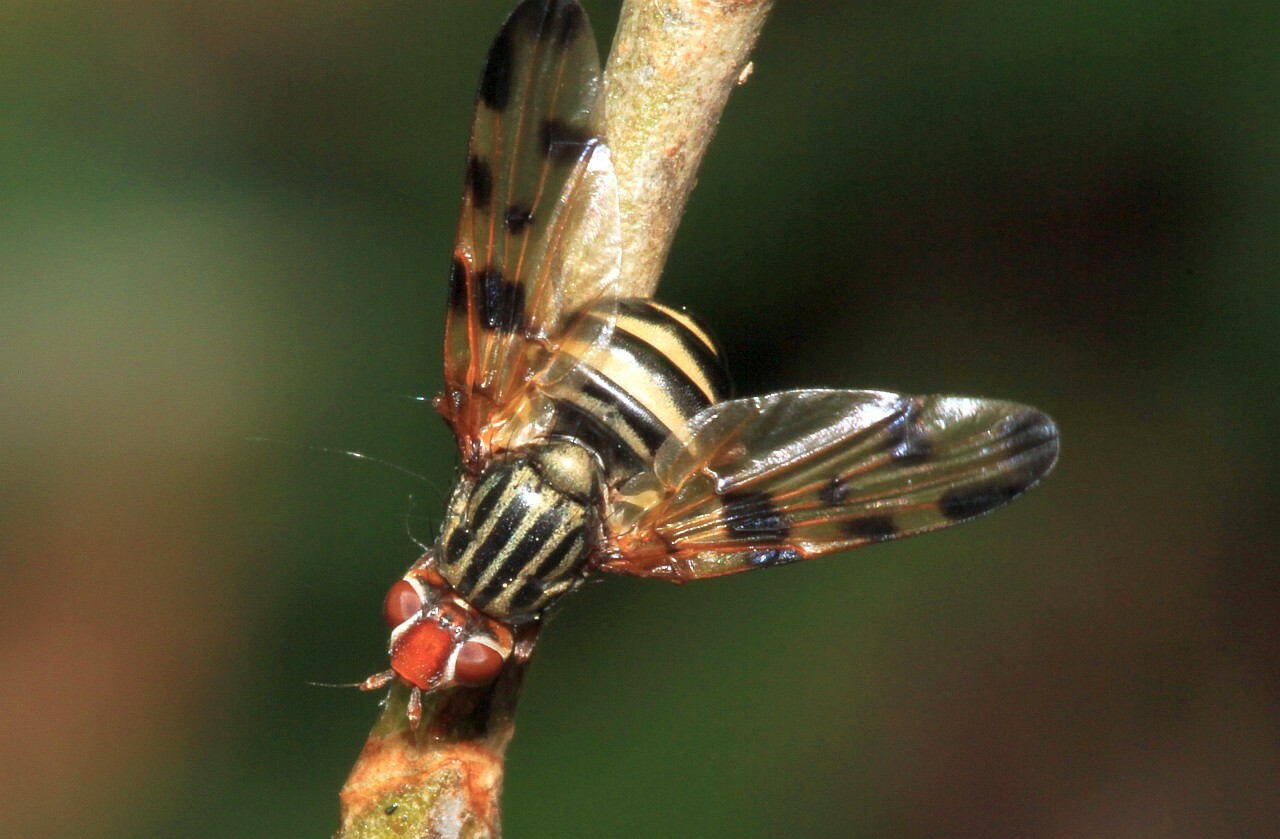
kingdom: Animalia
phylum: Arthropoda
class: Insecta
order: Diptera
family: Ulidiidae
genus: Otites
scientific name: Otites porcus
